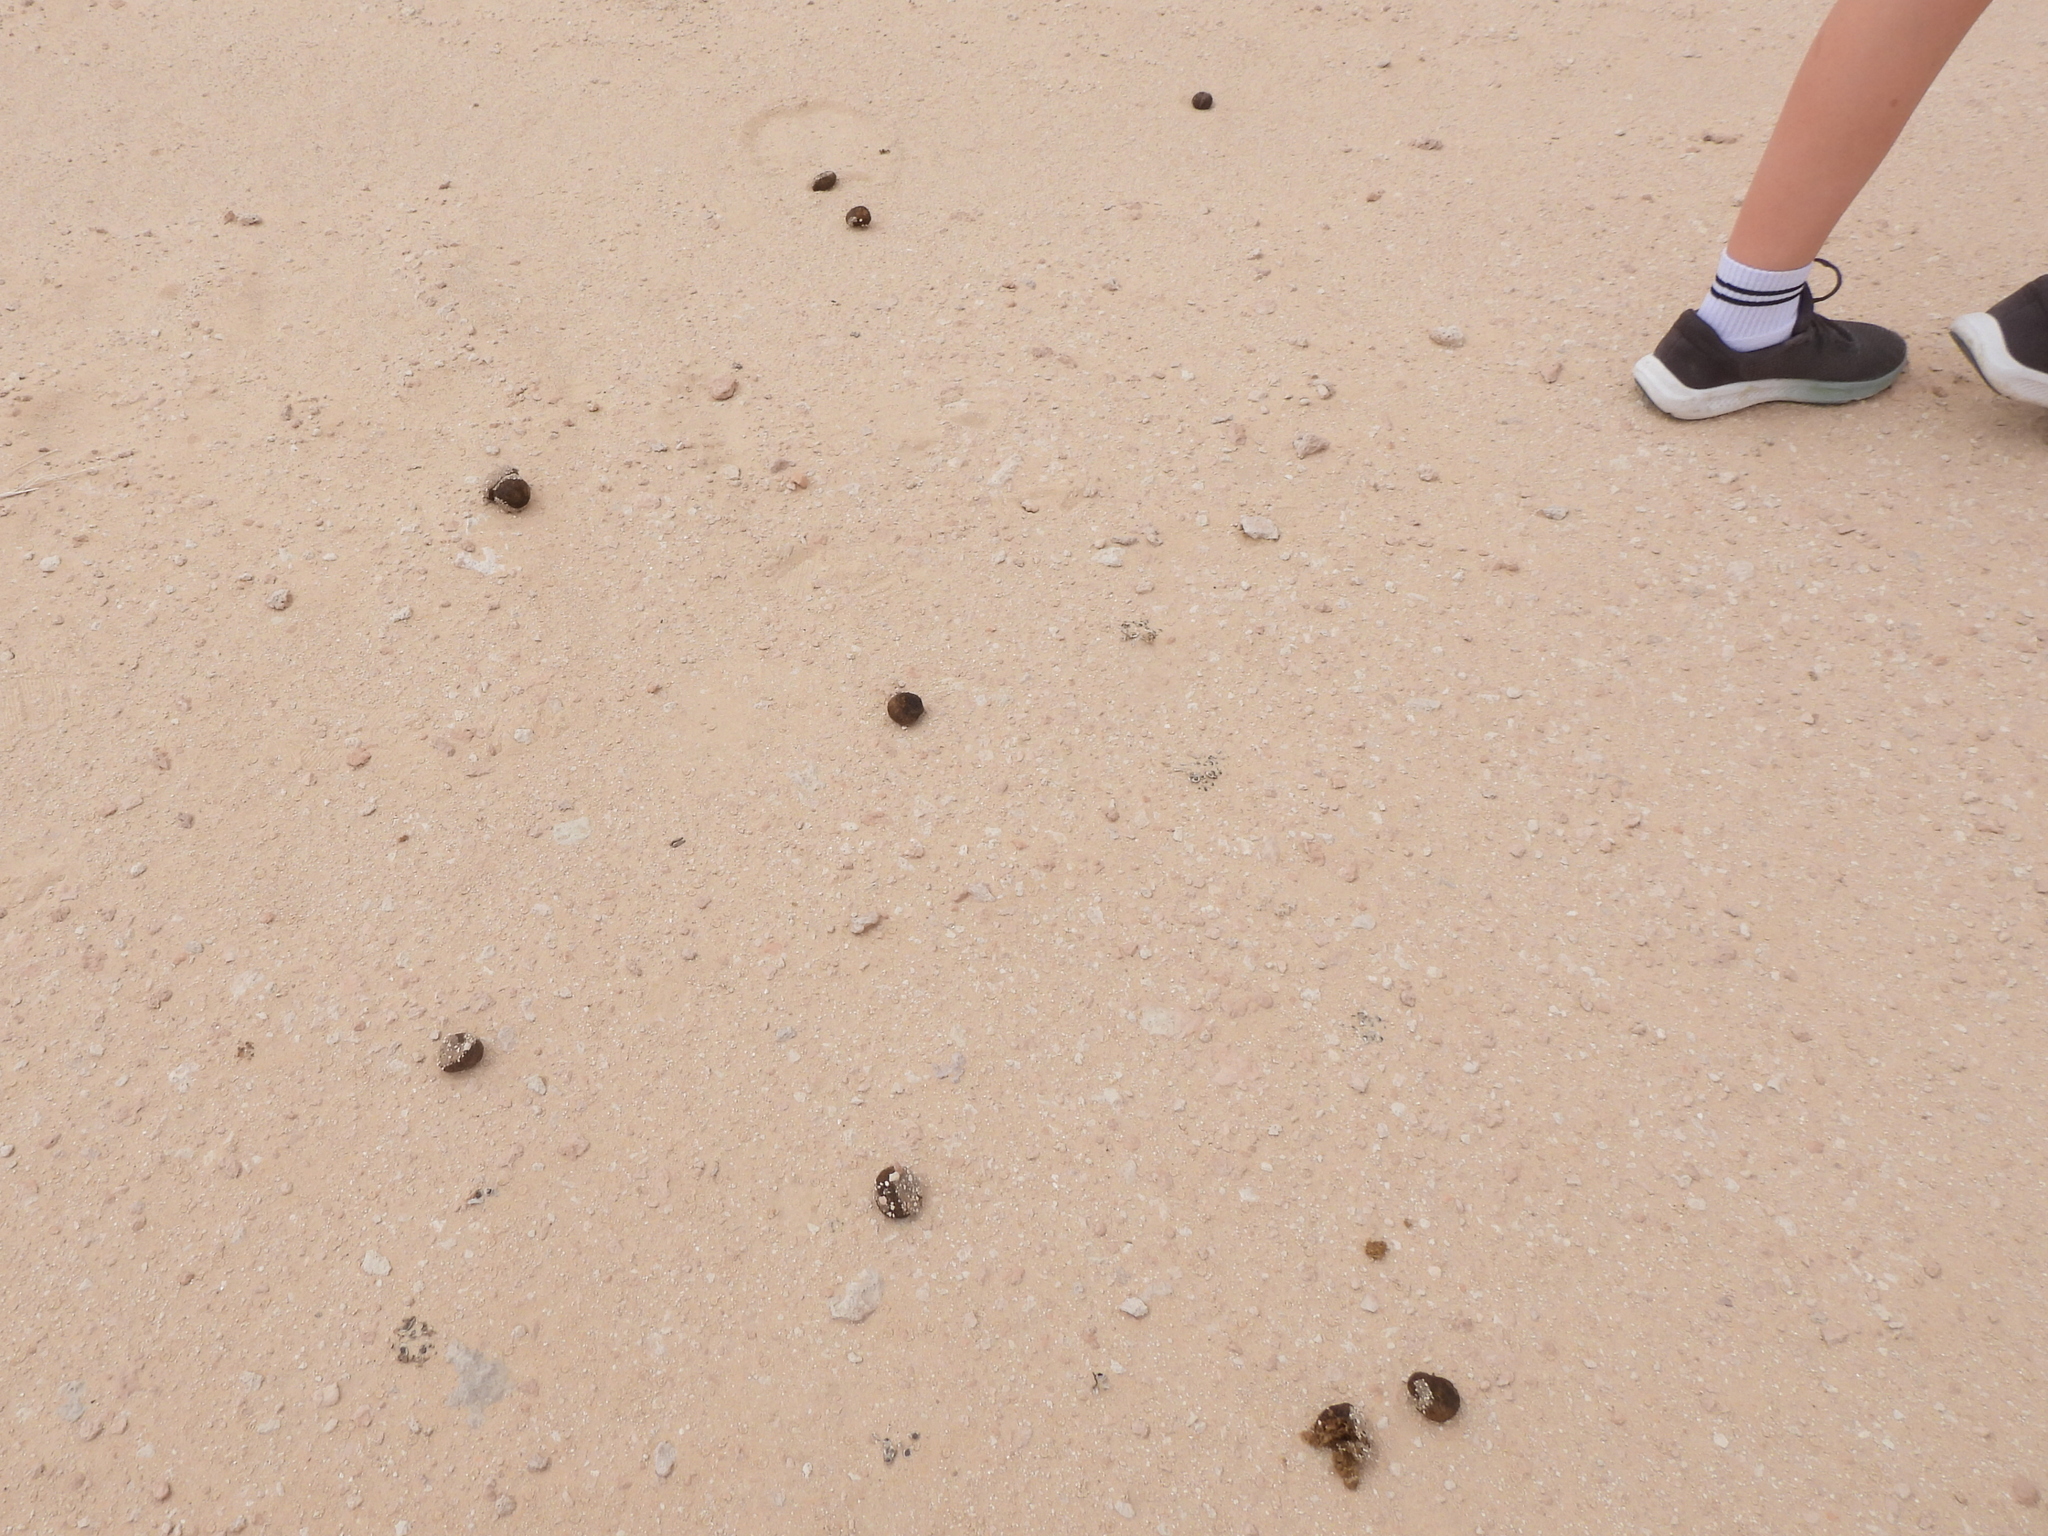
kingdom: Animalia
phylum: Chordata
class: Mammalia
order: Artiodactyla
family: Camelidae
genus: Camelus
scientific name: Camelus dromedarius
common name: One-humped camel
